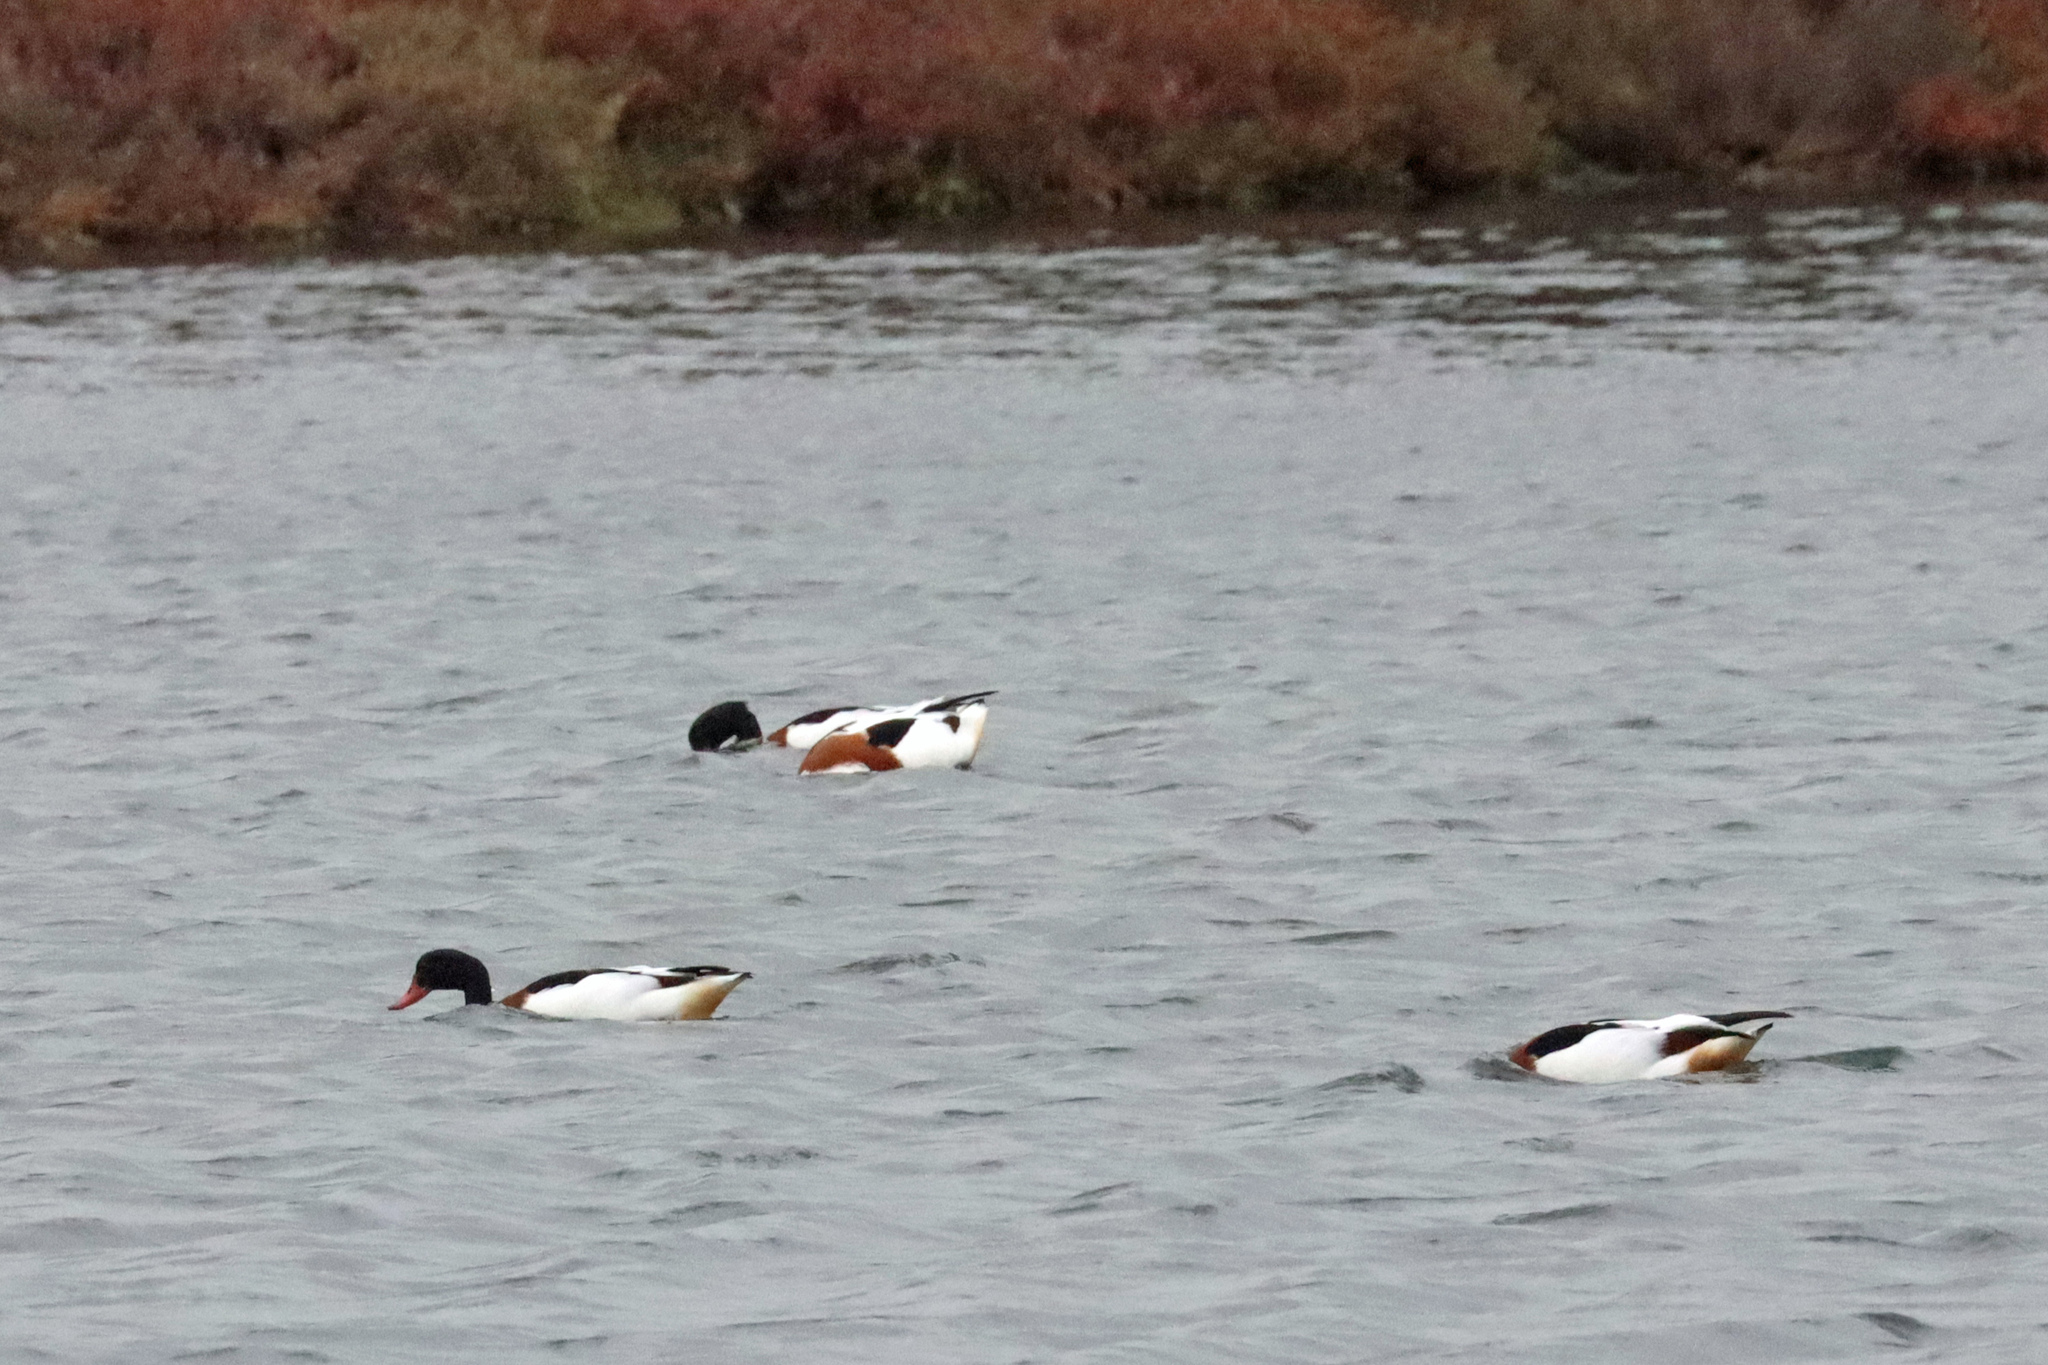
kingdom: Animalia
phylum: Chordata
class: Aves
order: Anseriformes
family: Anatidae
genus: Tadorna
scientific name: Tadorna tadorna
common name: Common shelduck
